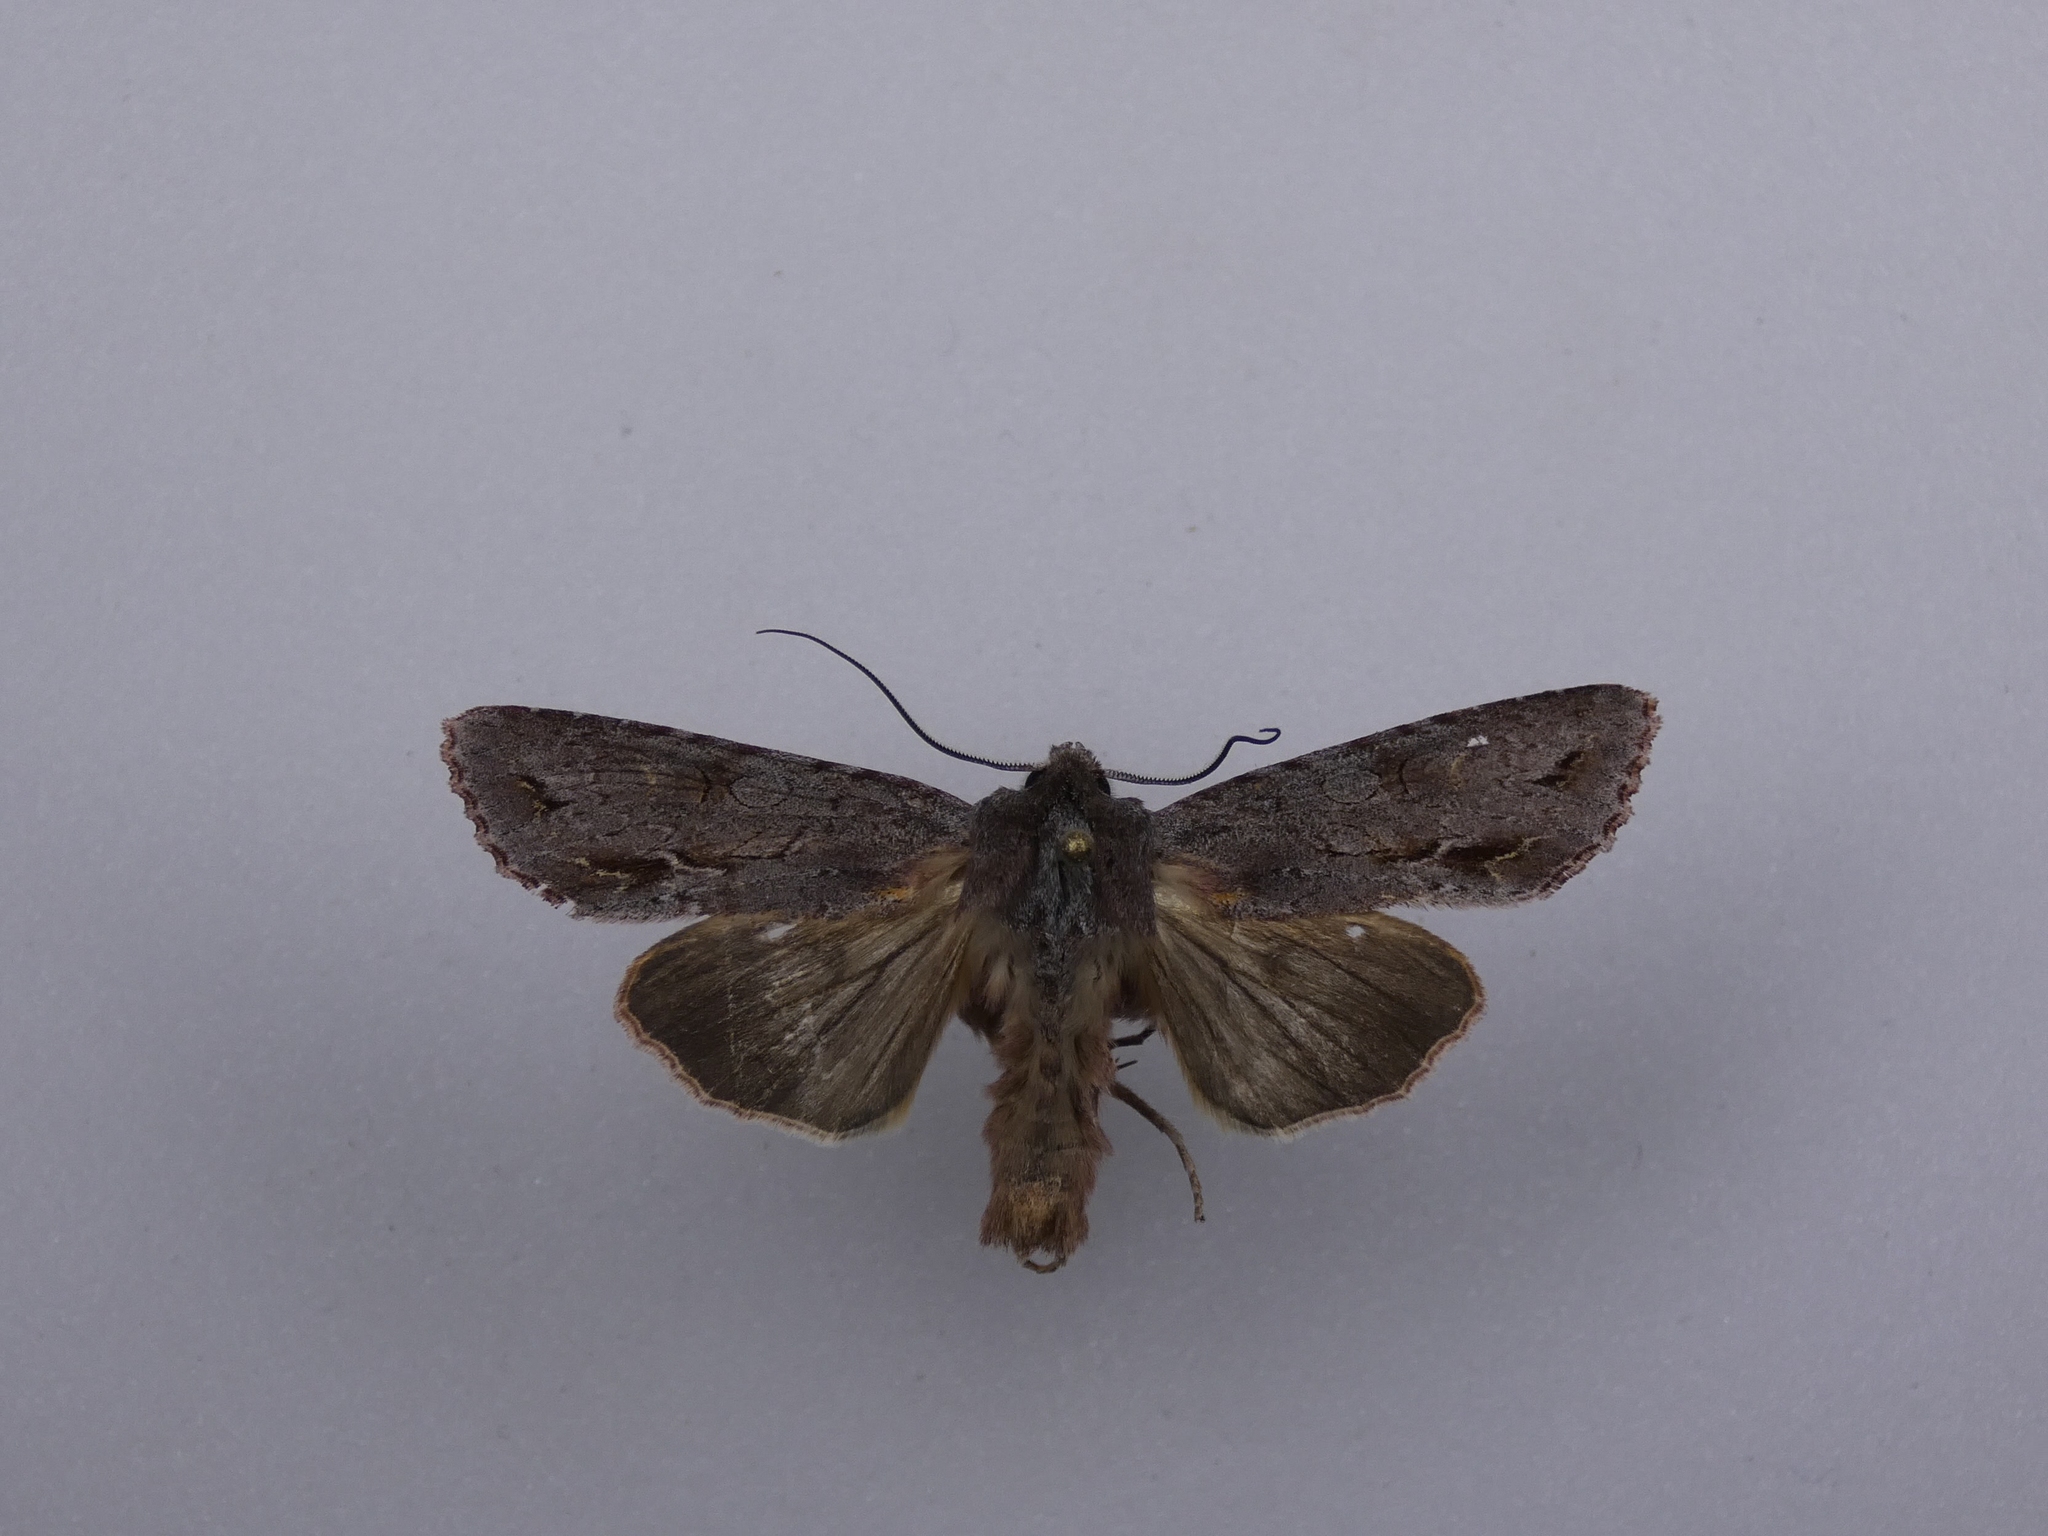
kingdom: Animalia
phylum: Arthropoda
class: Insecta
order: Lepidoptera
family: Noctuidae
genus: Ichneutica
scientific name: Ichneutica
